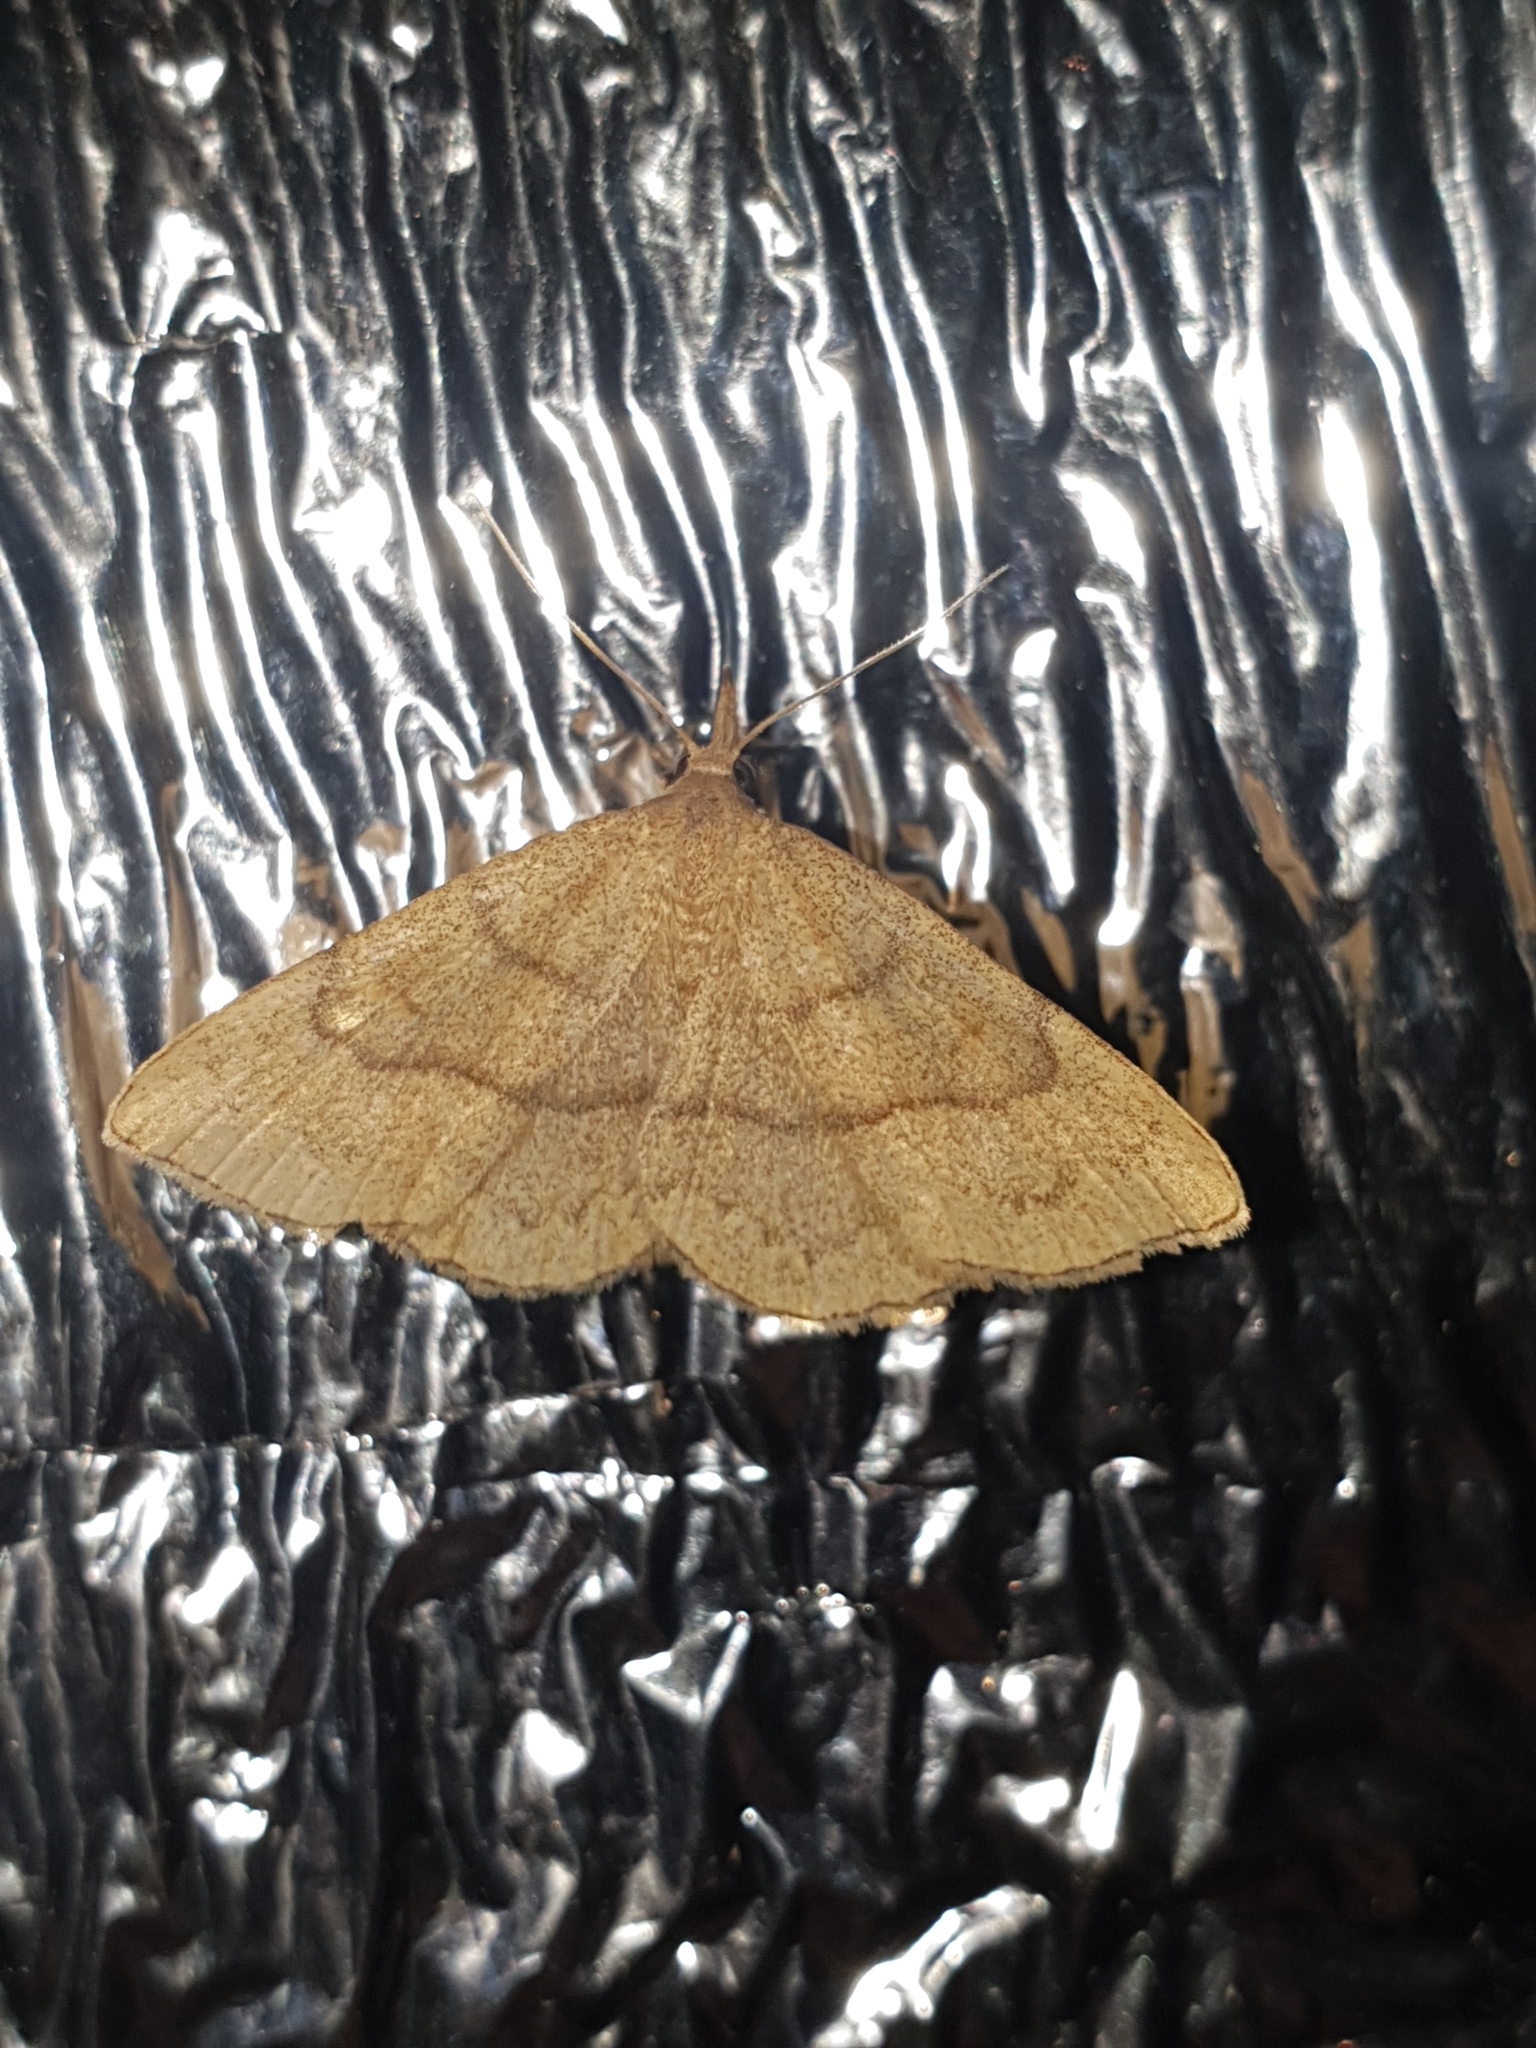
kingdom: Animalia
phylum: Arthropoda
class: Insecta
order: Lepidoptera
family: Erebidae
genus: Paracolax
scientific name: Paracolax tristalis
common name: Clay fan-foot
